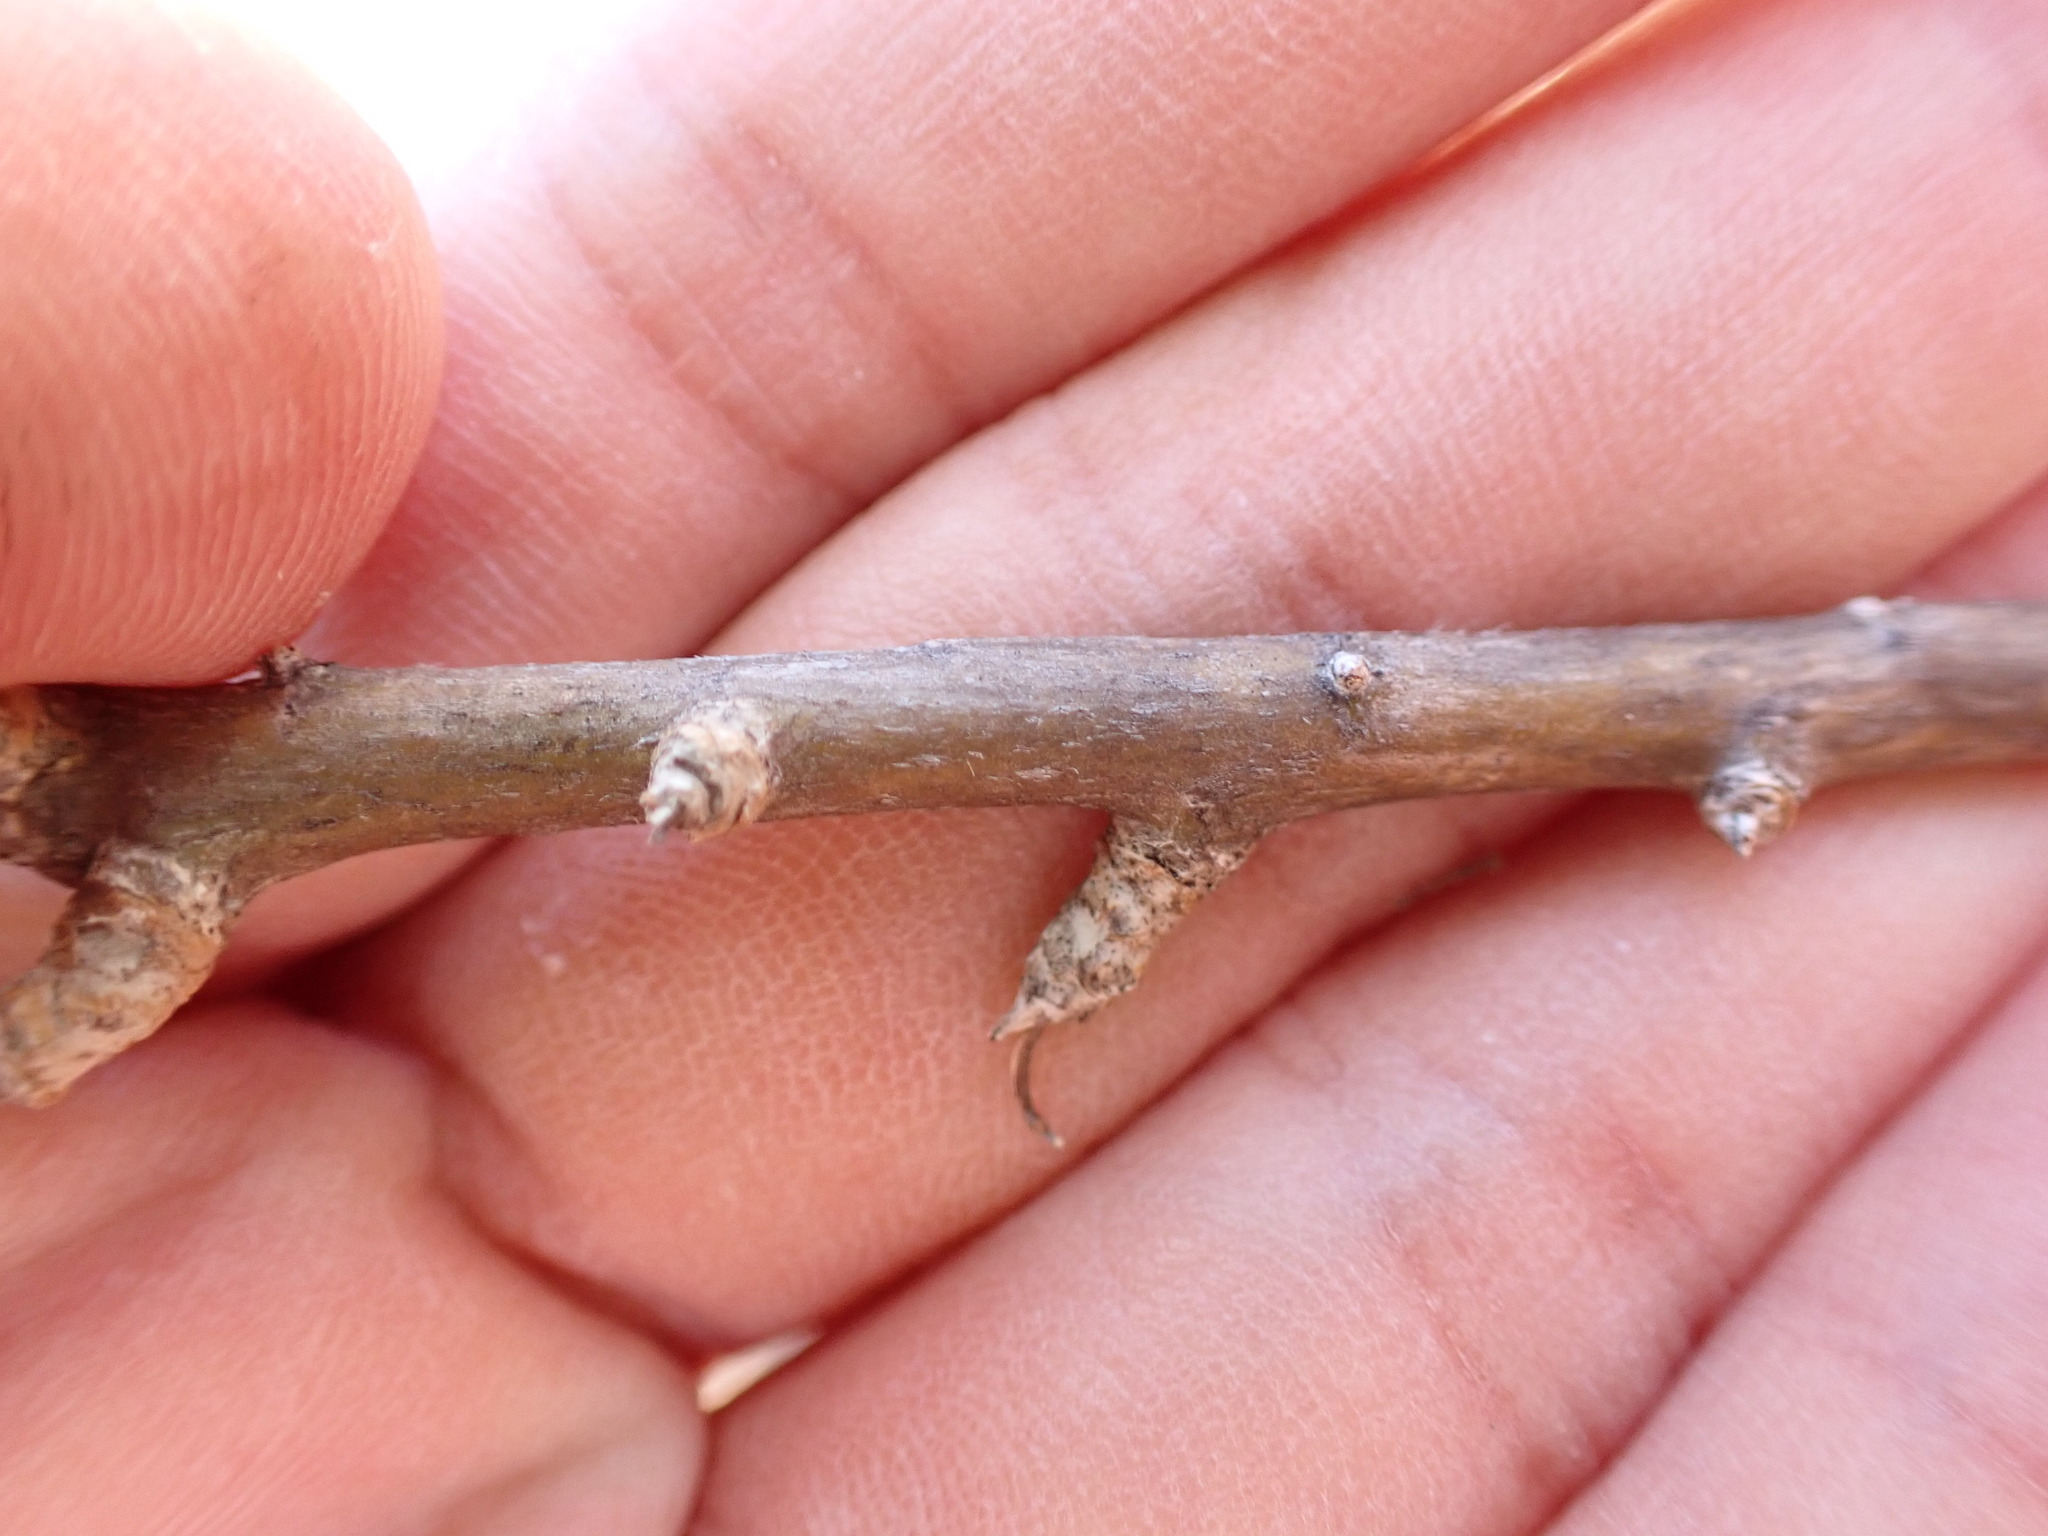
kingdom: Plantae
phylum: Tracheophyta
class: Magnoliopsida
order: Asterales
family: Asteraceae
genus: Sonchus
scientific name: Sonchus leptocephalus
